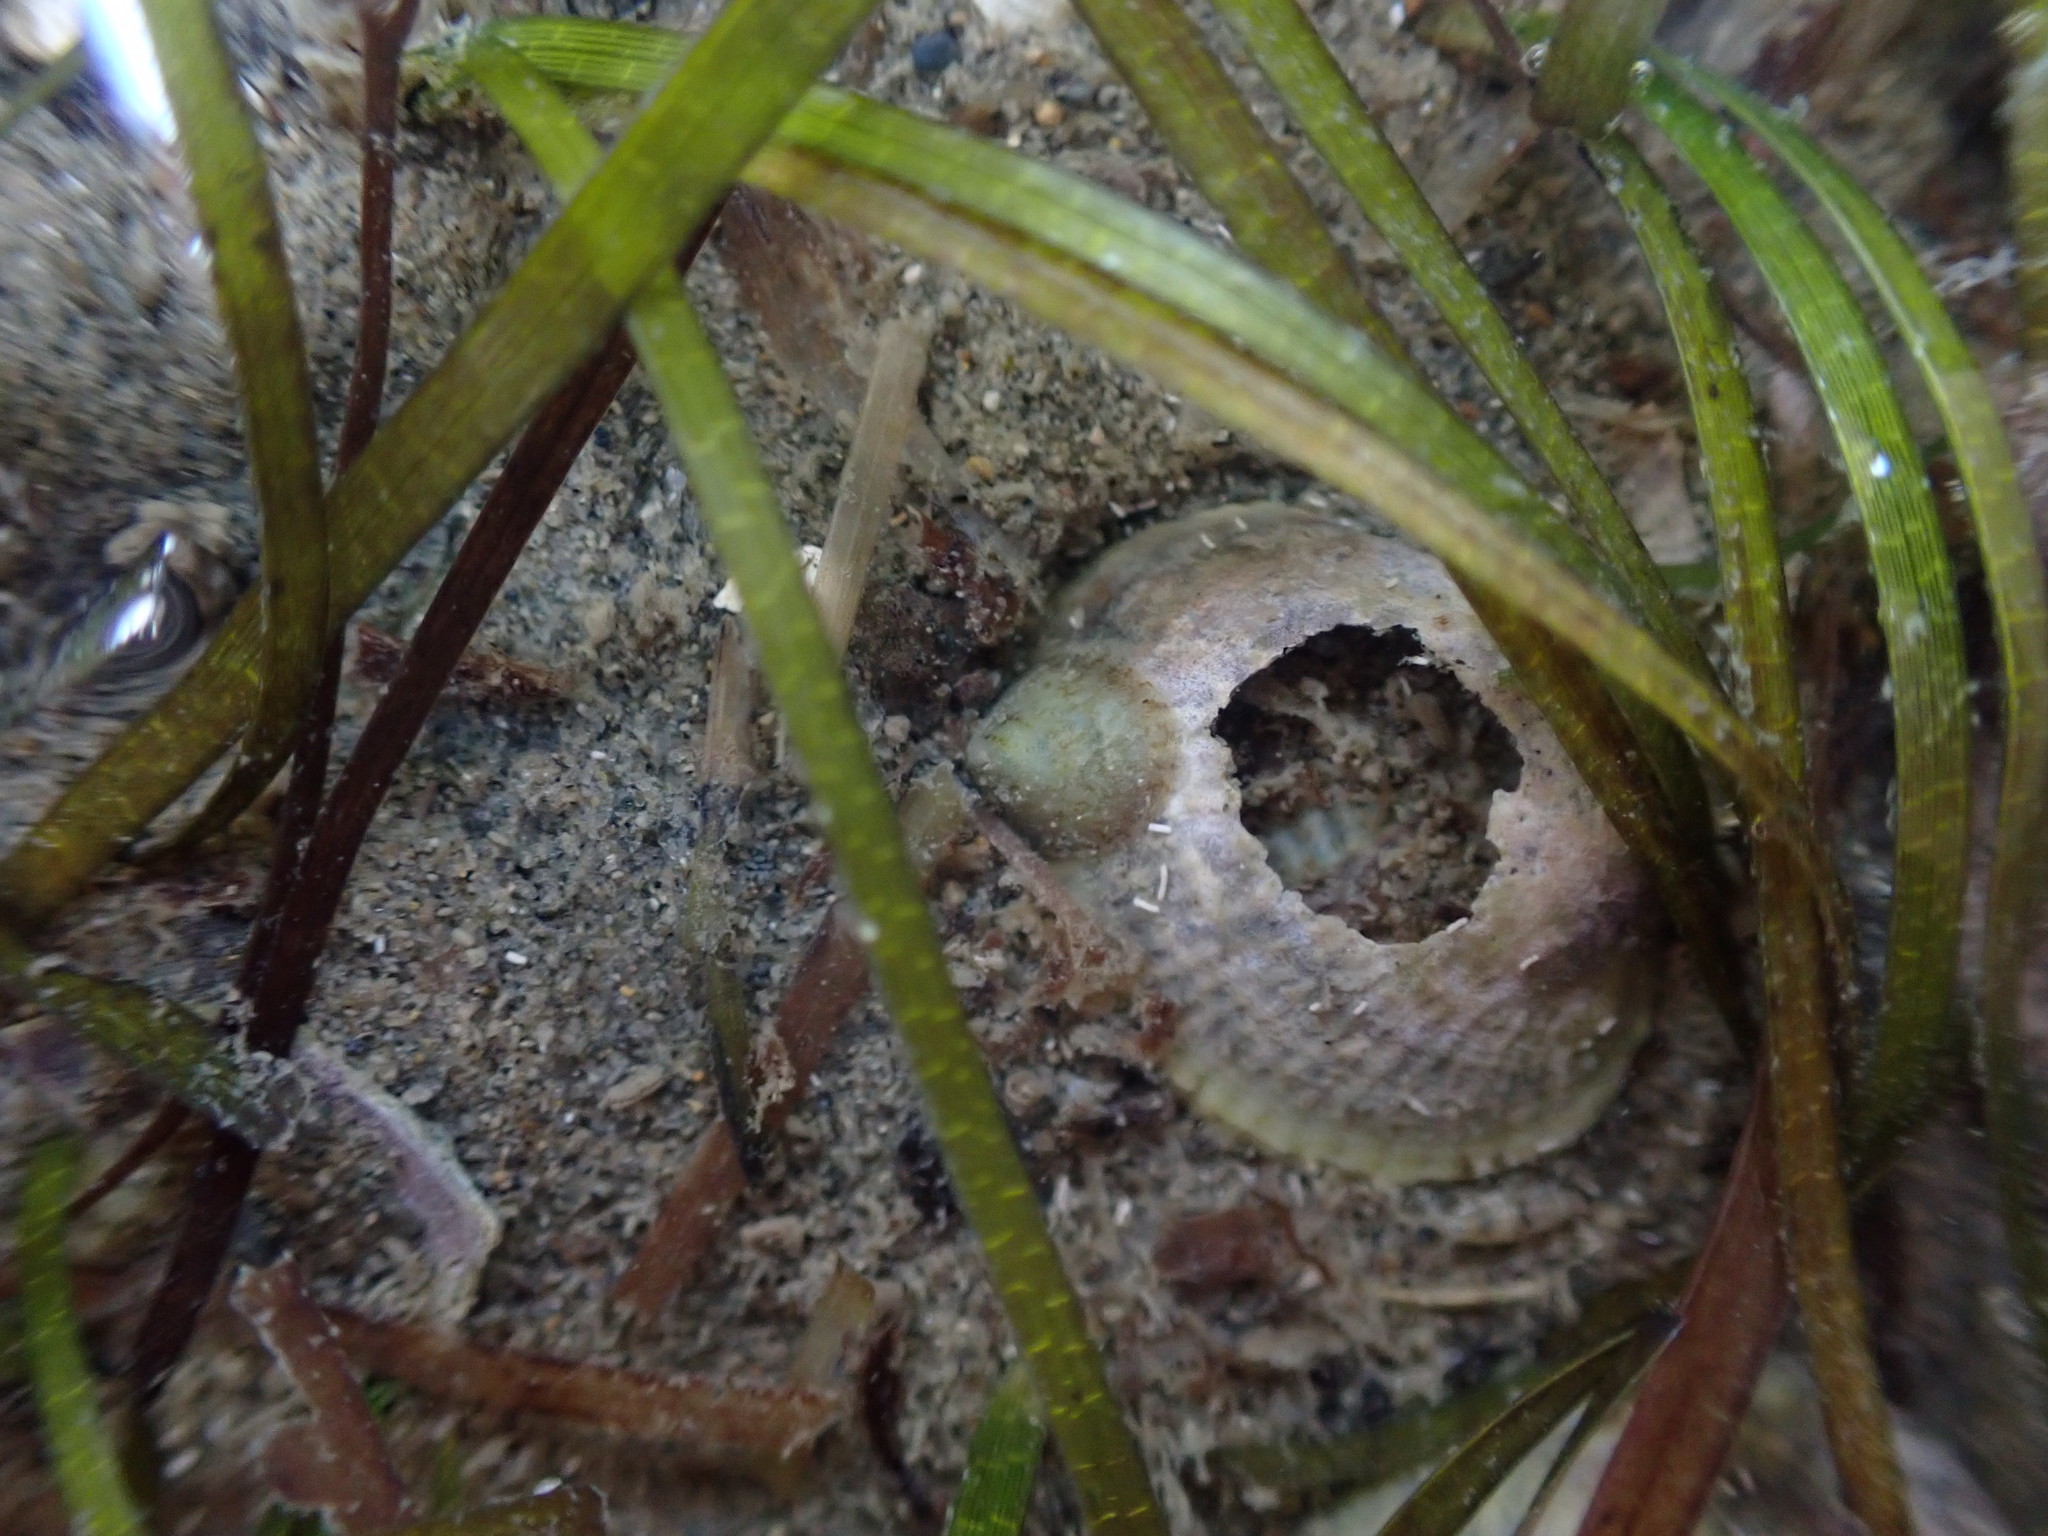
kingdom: Animalia
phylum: Mollusca
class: Gastropoda
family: Lottiidae
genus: Notoacmea
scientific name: Notoacmea scapha
